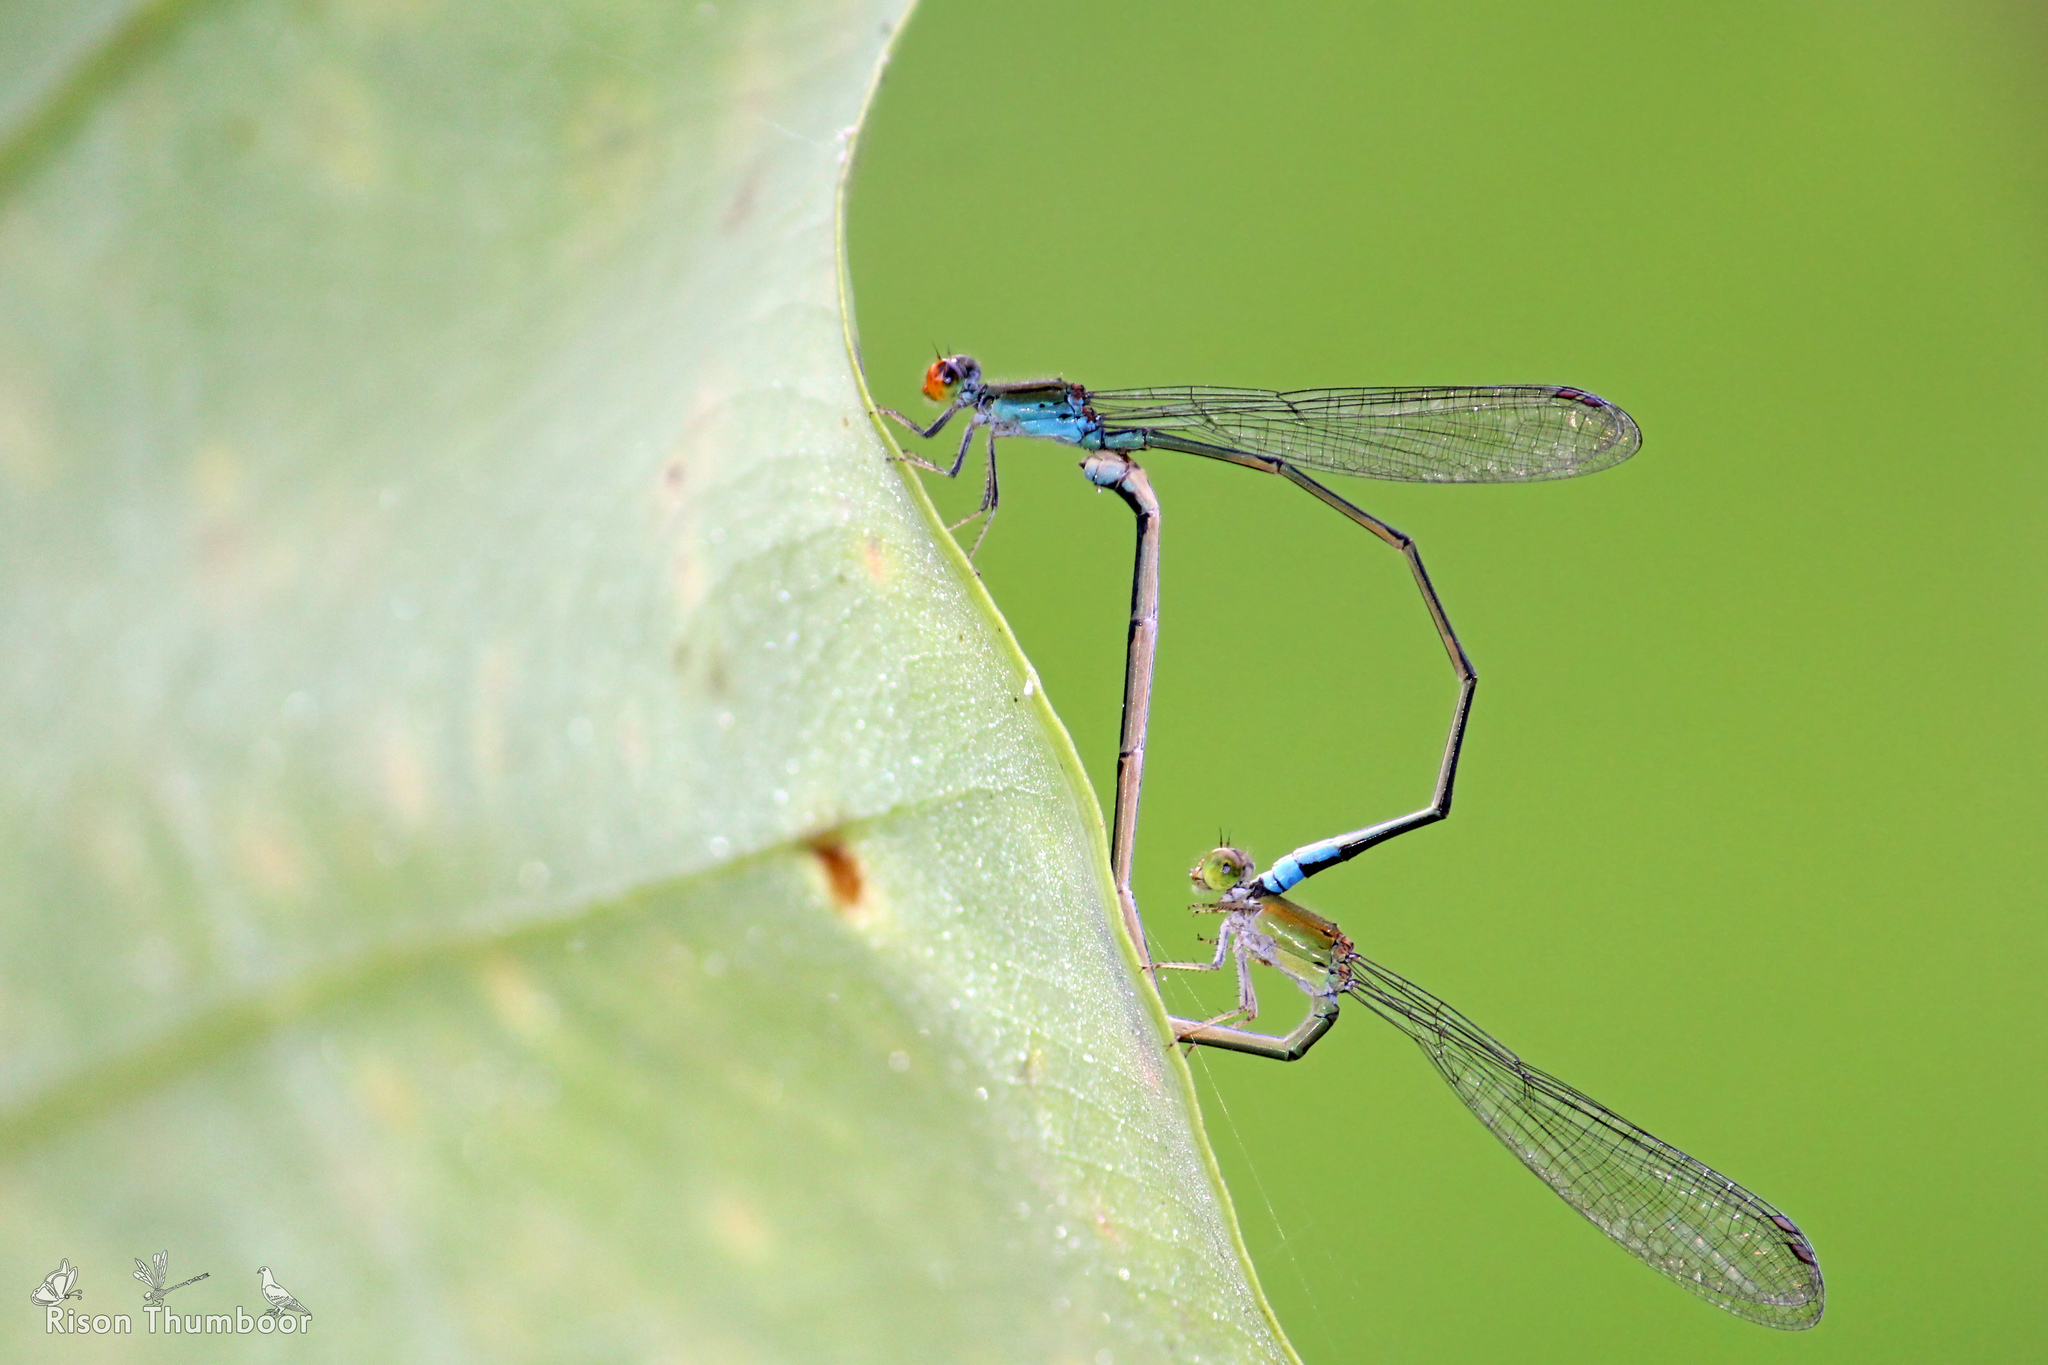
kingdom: Animalia
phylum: Arthropoda
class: Insecta
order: Odonata
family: Coenagrionidae
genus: Pseudagrion
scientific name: Pseudagrion rubriceps
